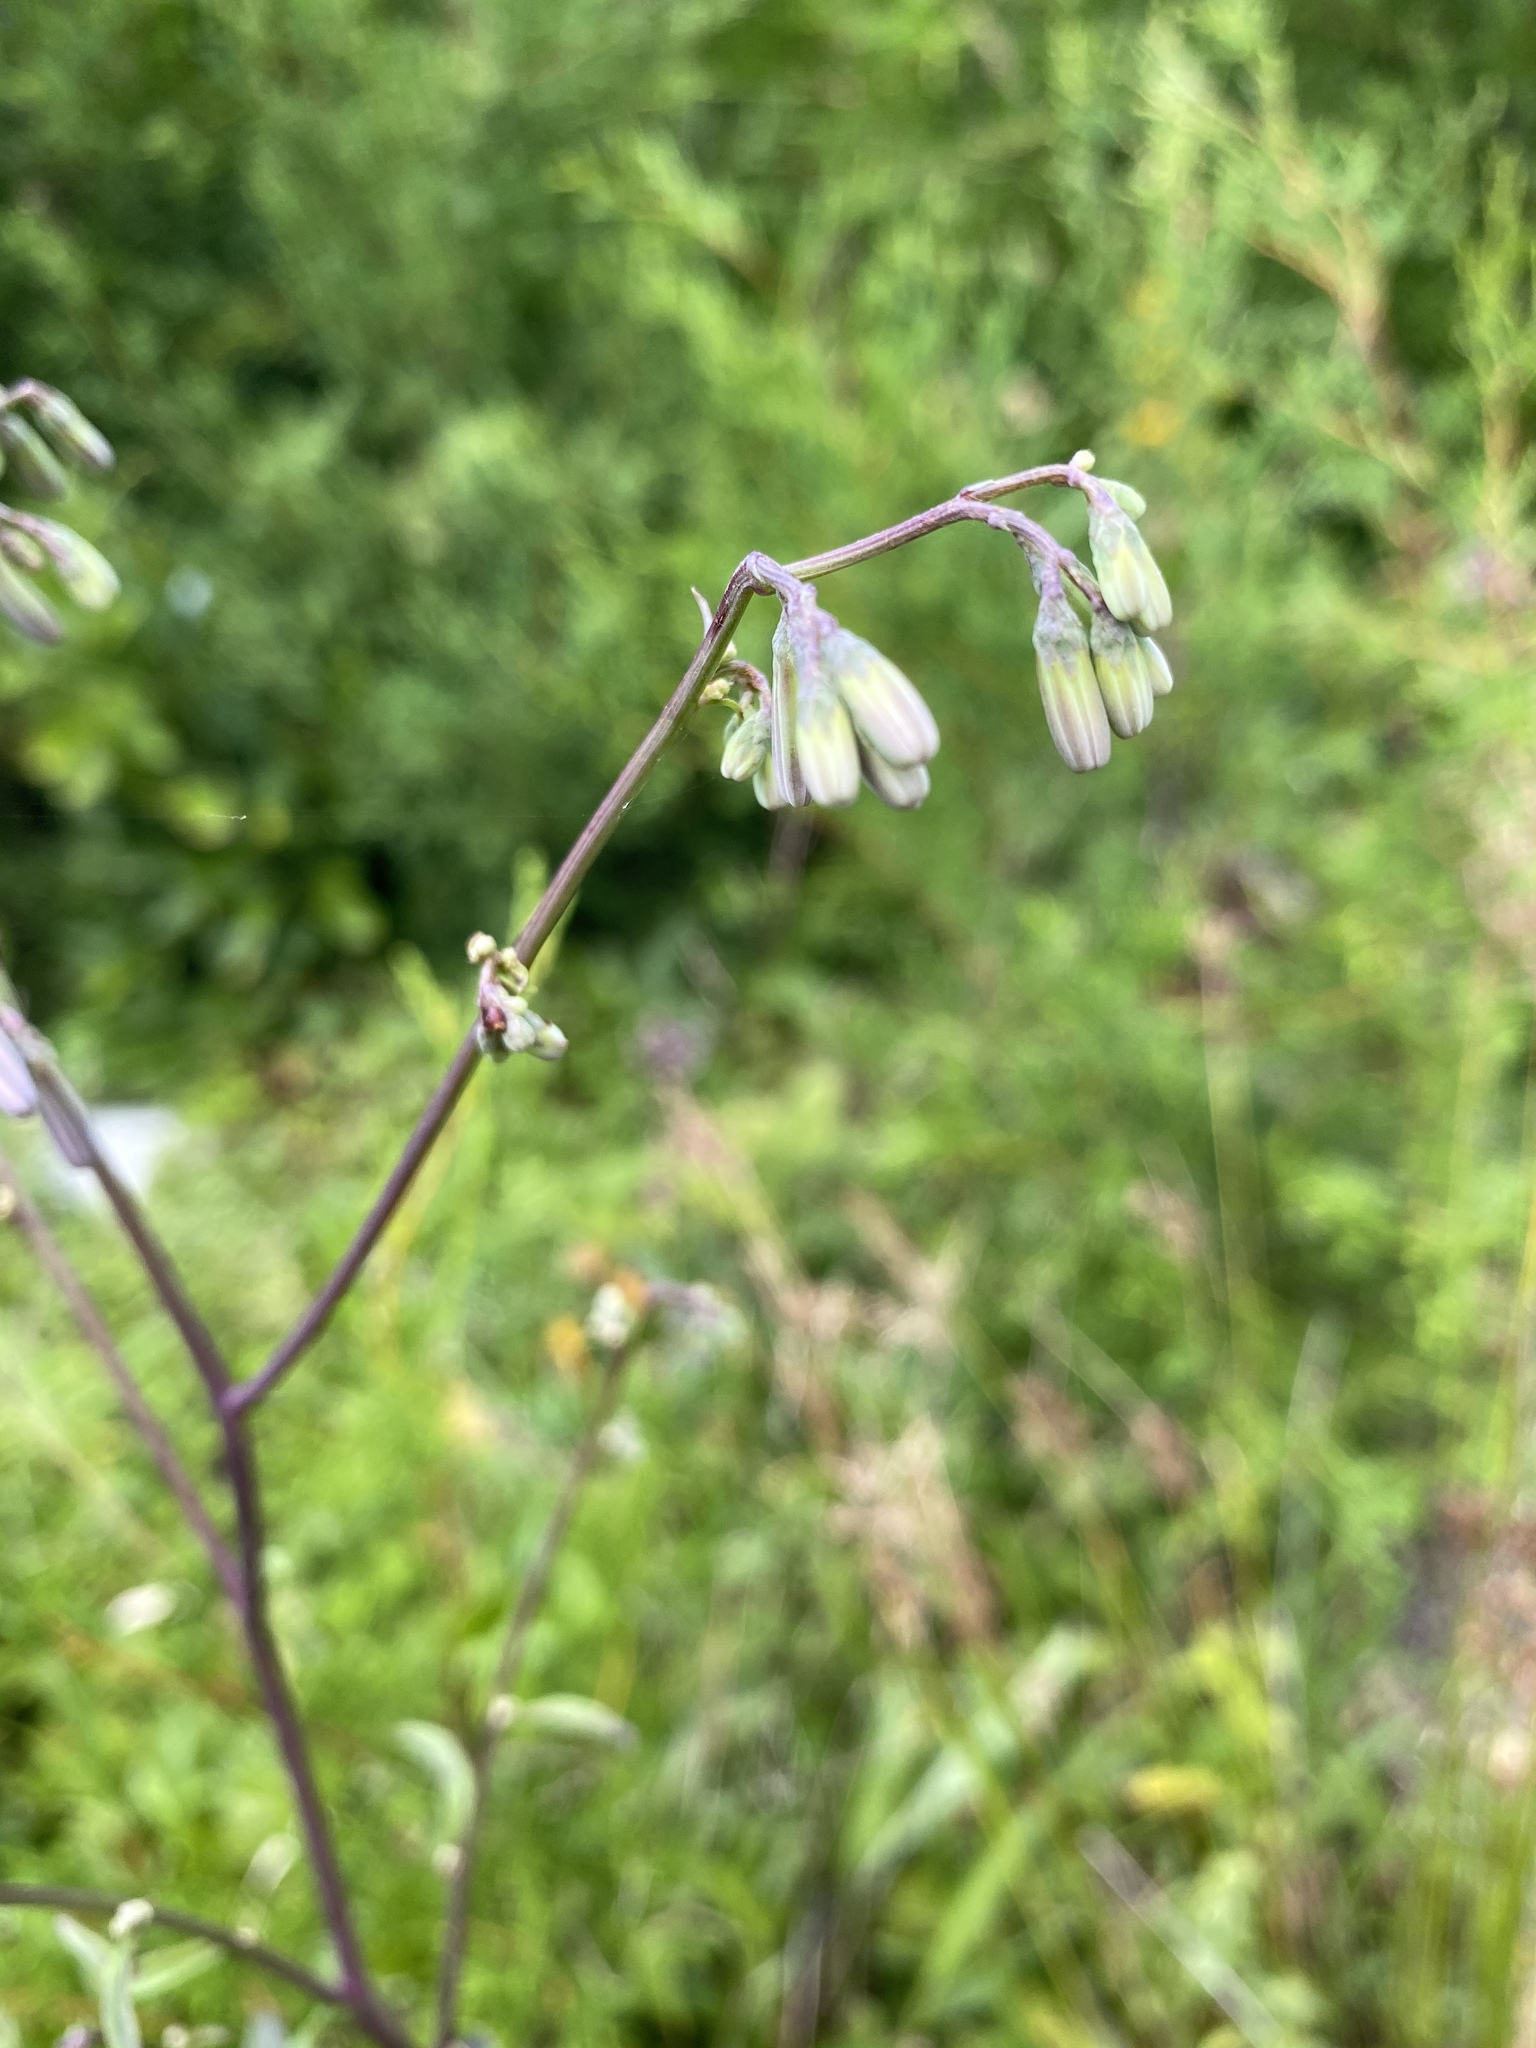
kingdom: Plantae
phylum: Tracheophyta
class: Magnoliopsida
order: Asterales
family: Asteraceae
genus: Nabalus
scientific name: Nabalus albus
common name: White rattlesnakeroot
